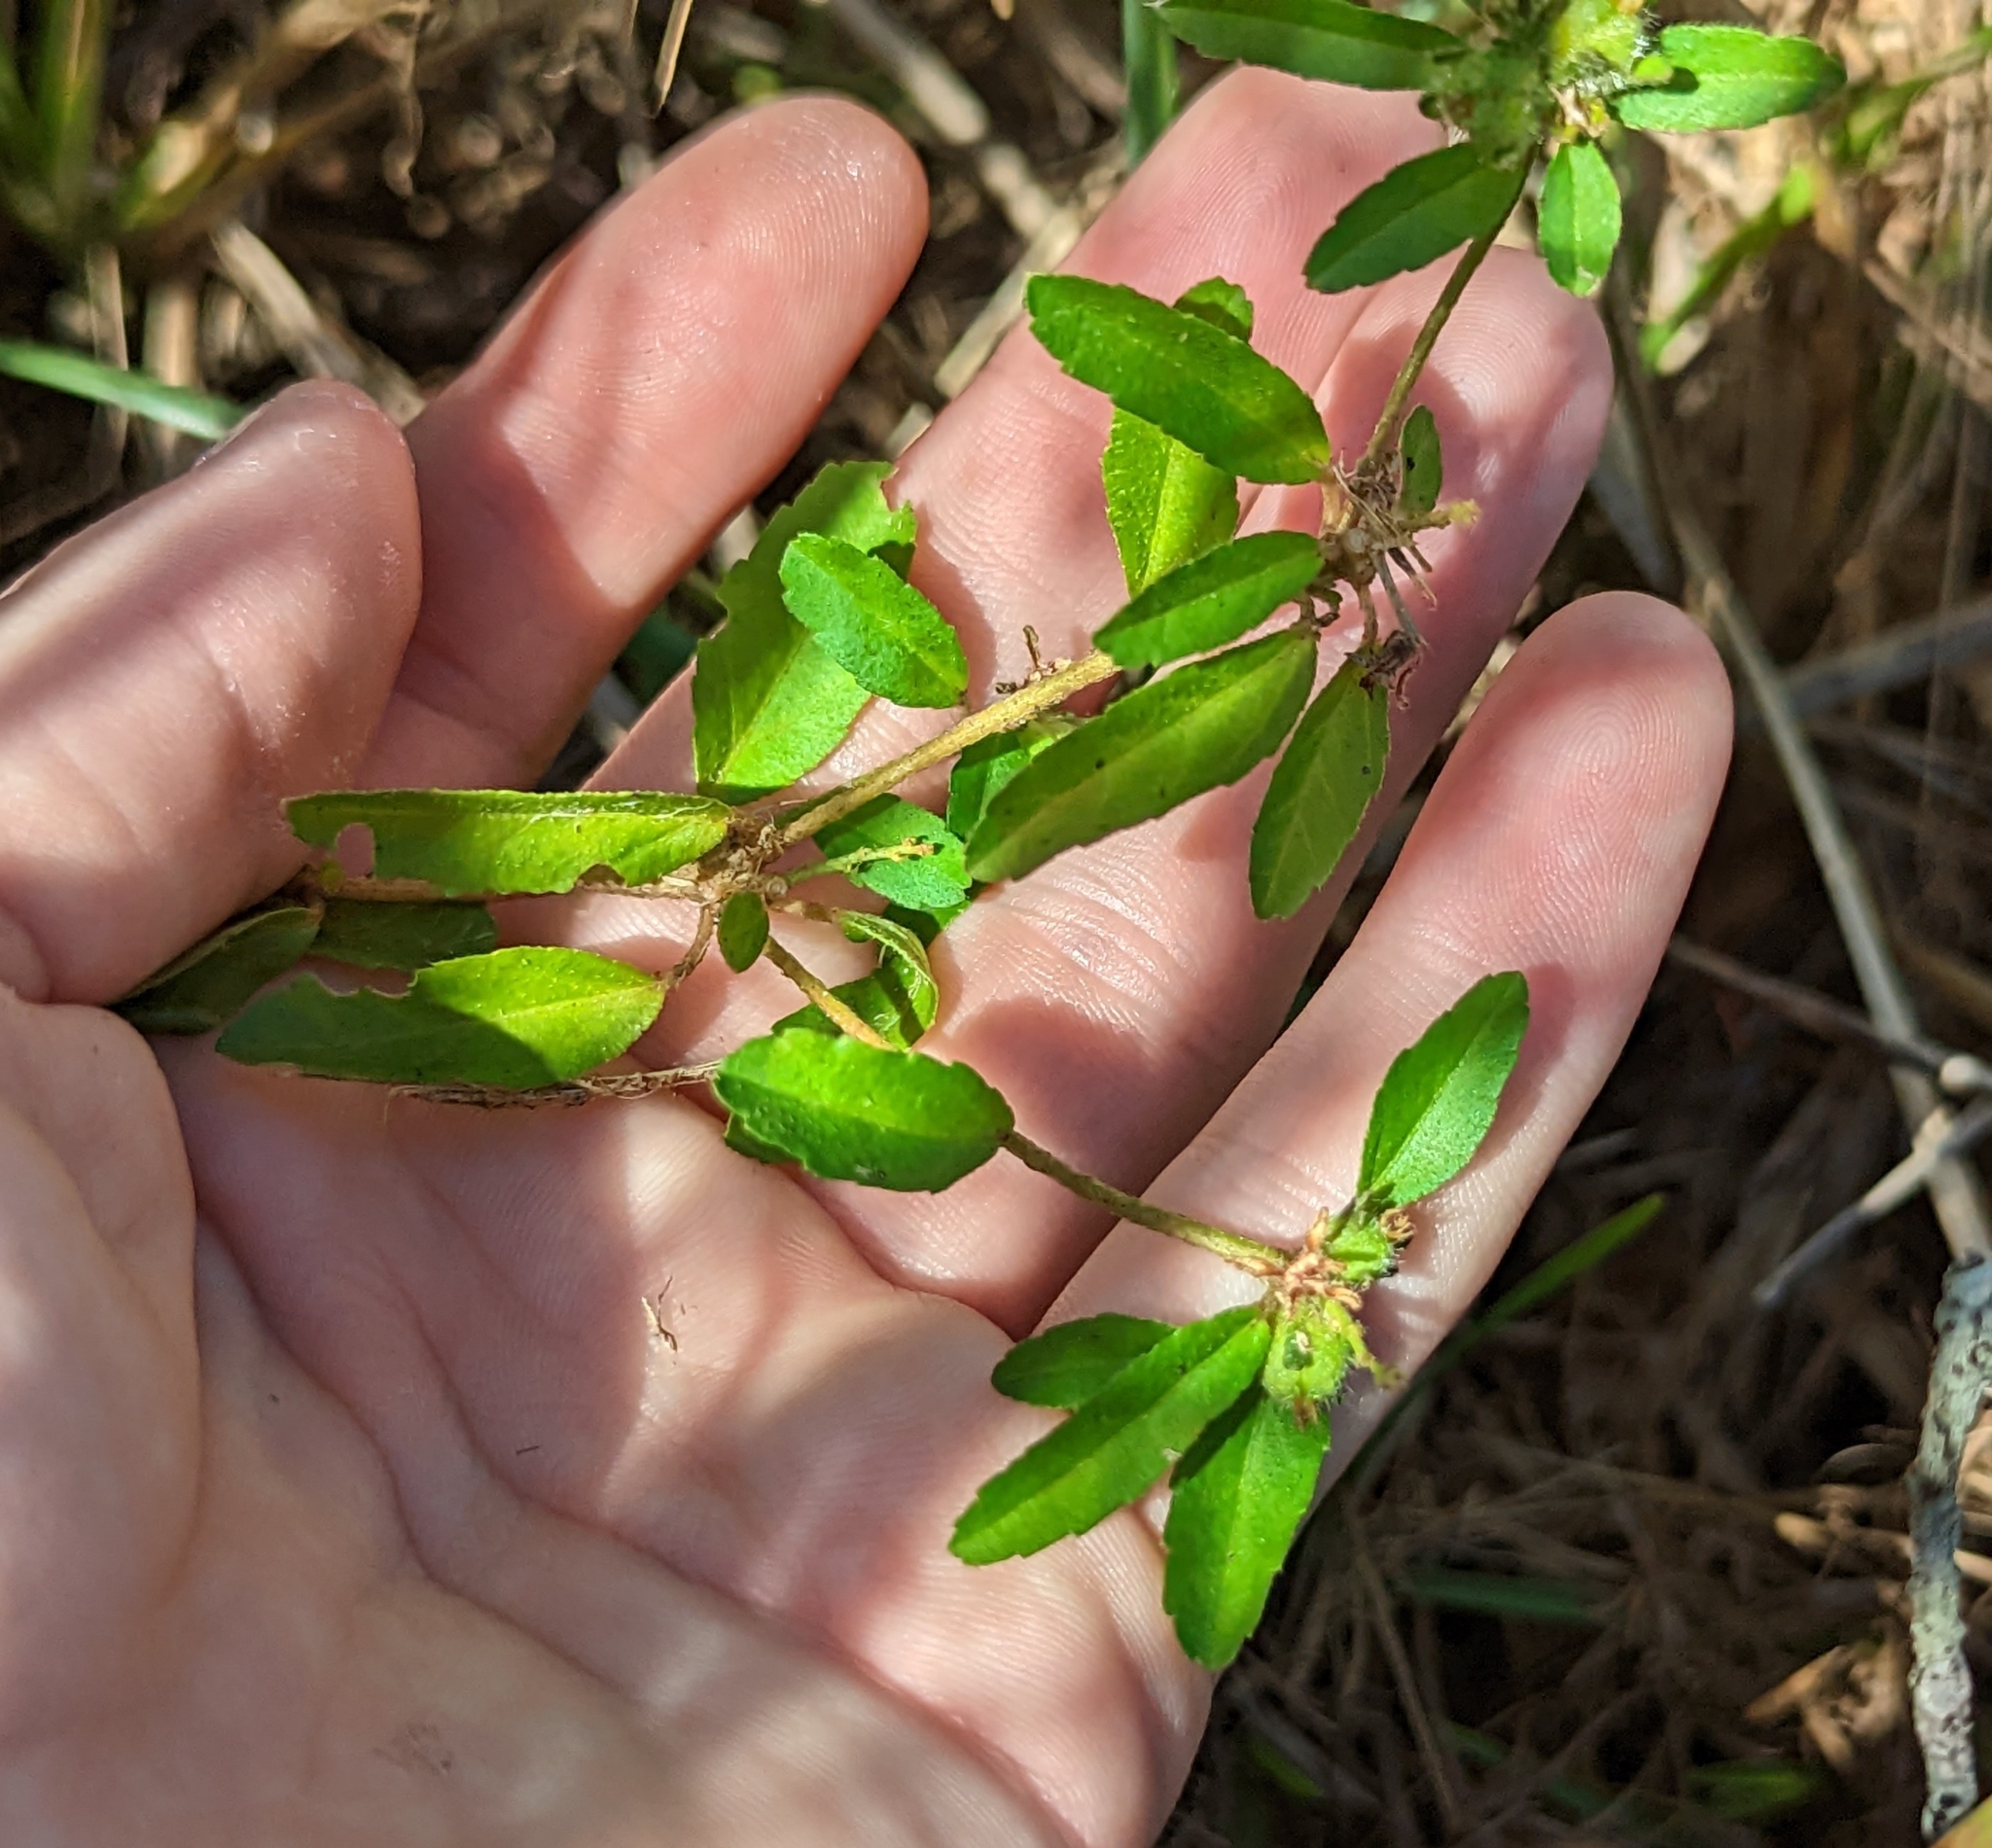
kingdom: Plantae
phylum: Tracheophyta
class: Magnoliopsida
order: Malpighiales
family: Euphorbiaceae
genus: Croton
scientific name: Croton glandulosus
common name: Tropic croton
